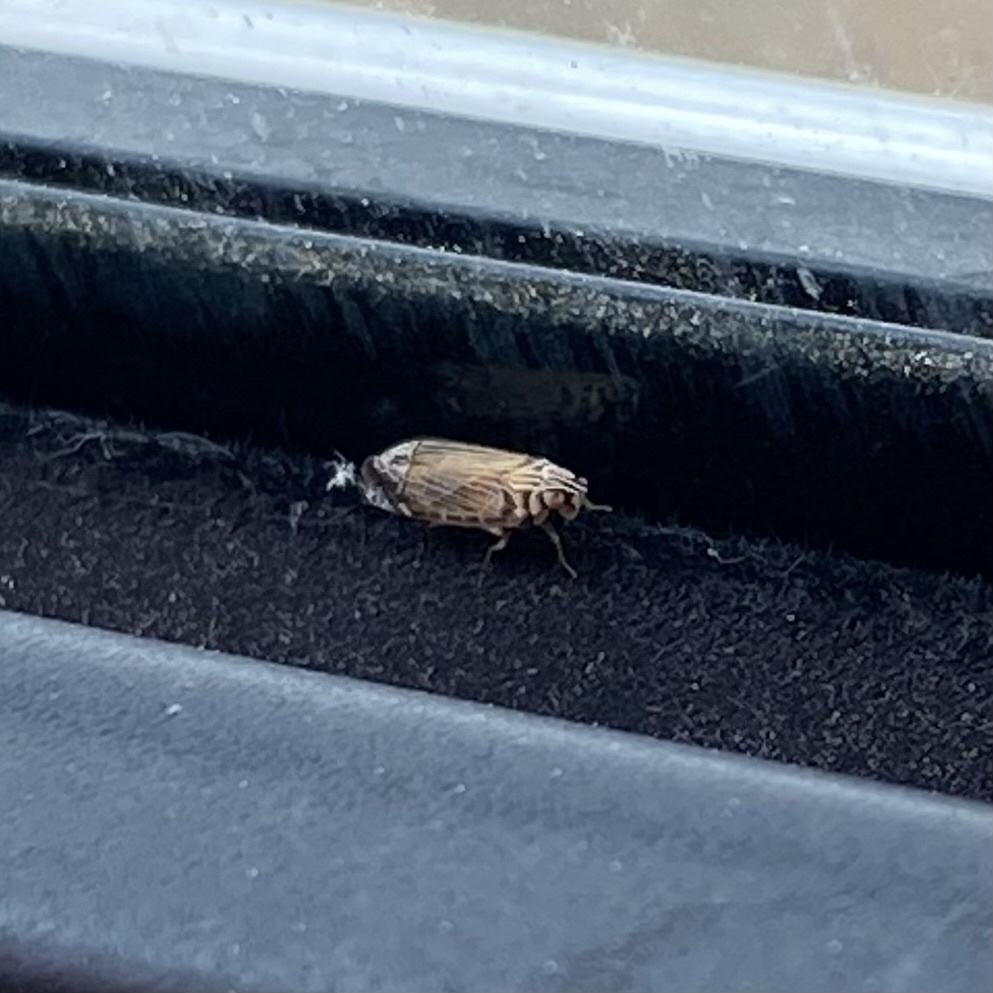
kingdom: Animalia
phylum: Arthropoda
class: Insecta
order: Hemiptera
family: Cixiidae
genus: Haplaxius
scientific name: Haplaxius
